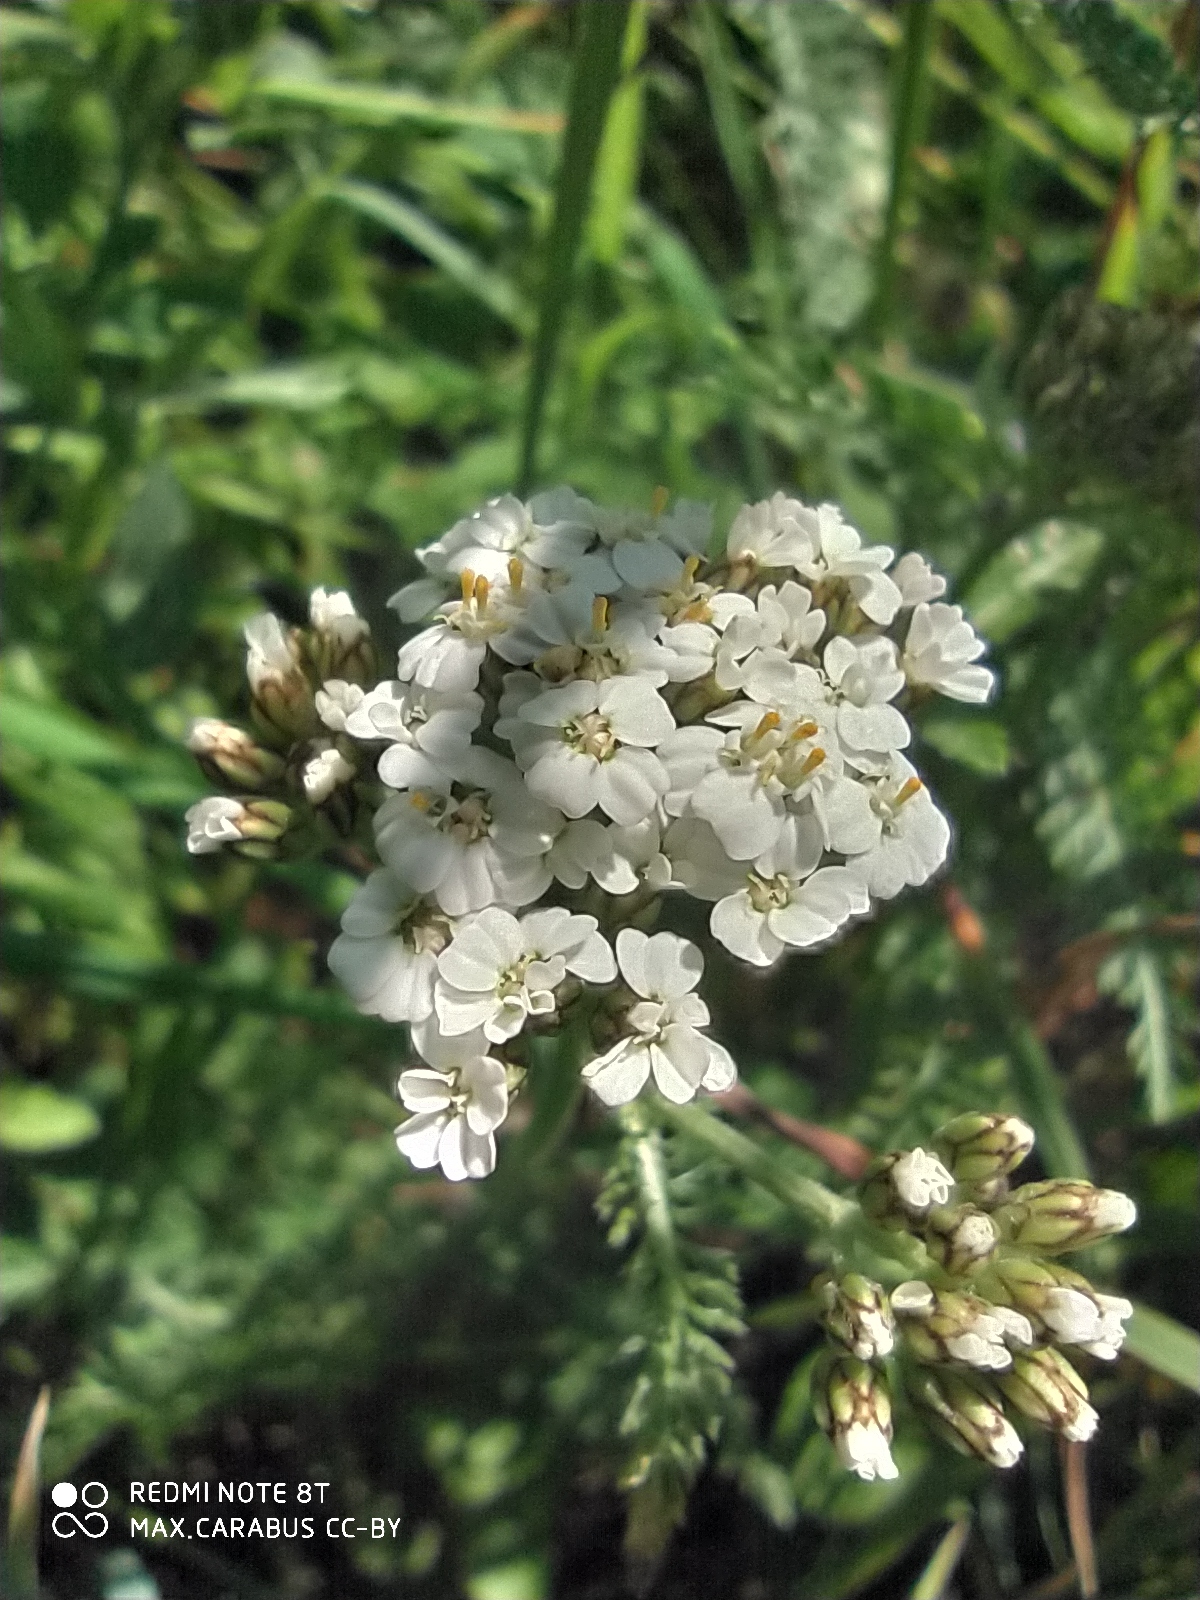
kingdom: Plantae
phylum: Tracheophyta
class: Magnoliopsida
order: Asterales
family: Asteraceae
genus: Achillea
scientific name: Achillea millefolium
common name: Yarrow
